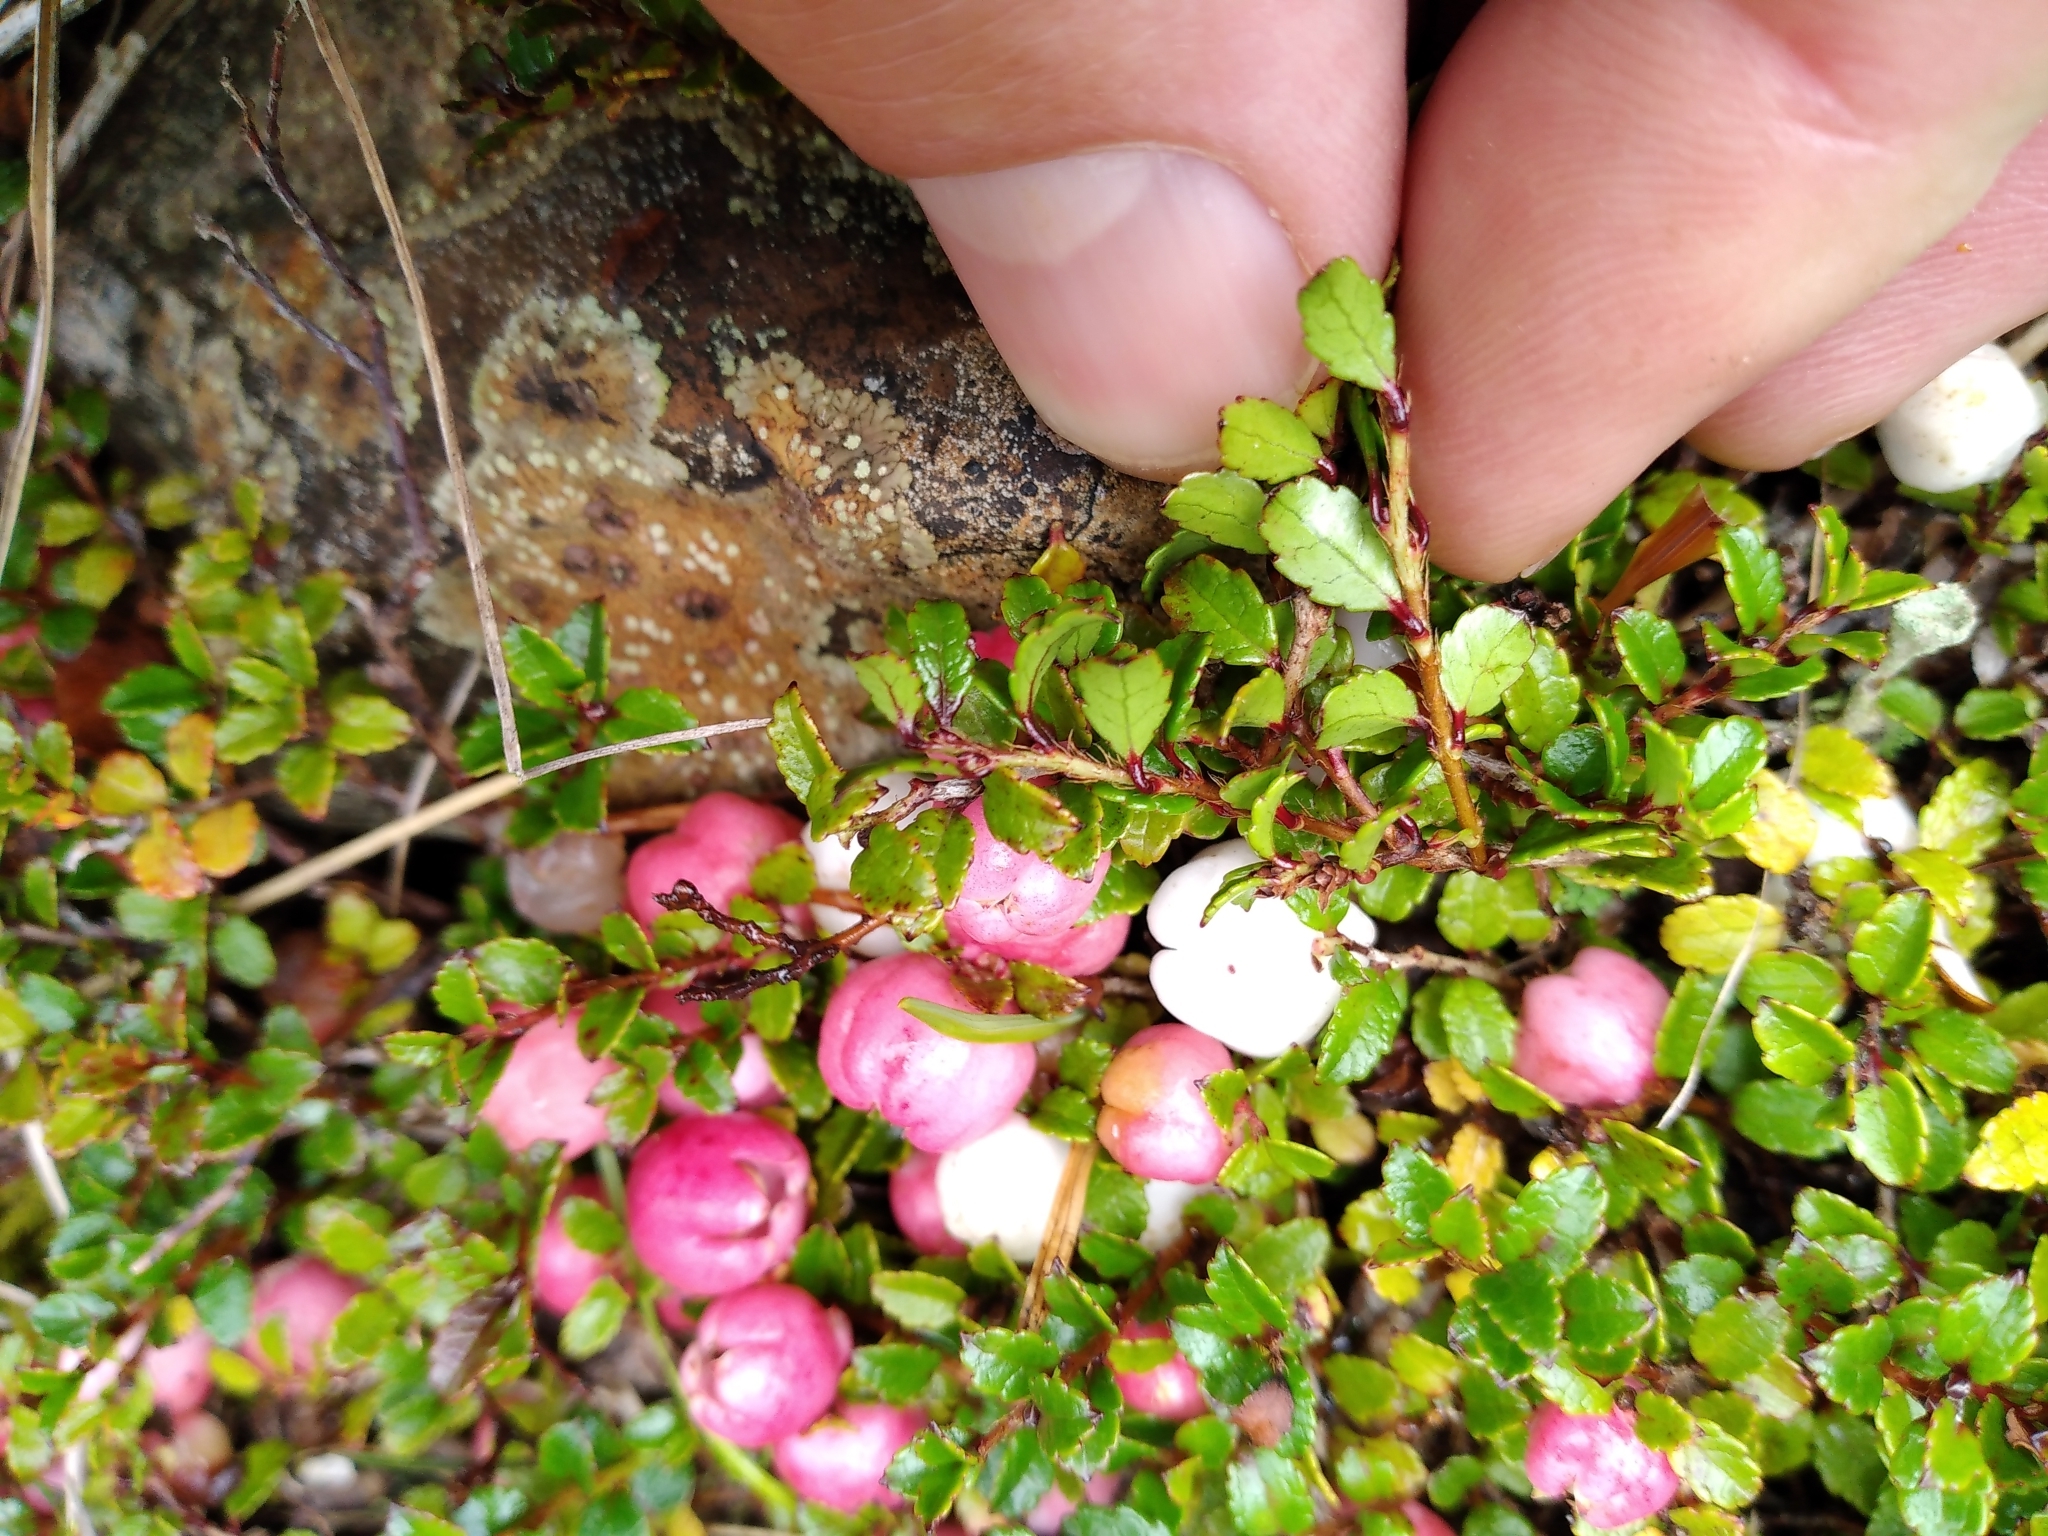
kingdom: Plantae
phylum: Tracheophyta
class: Magnoliopsida
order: Ericales
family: Ericaceae
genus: Gaultheria
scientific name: Gaultheria depressa
